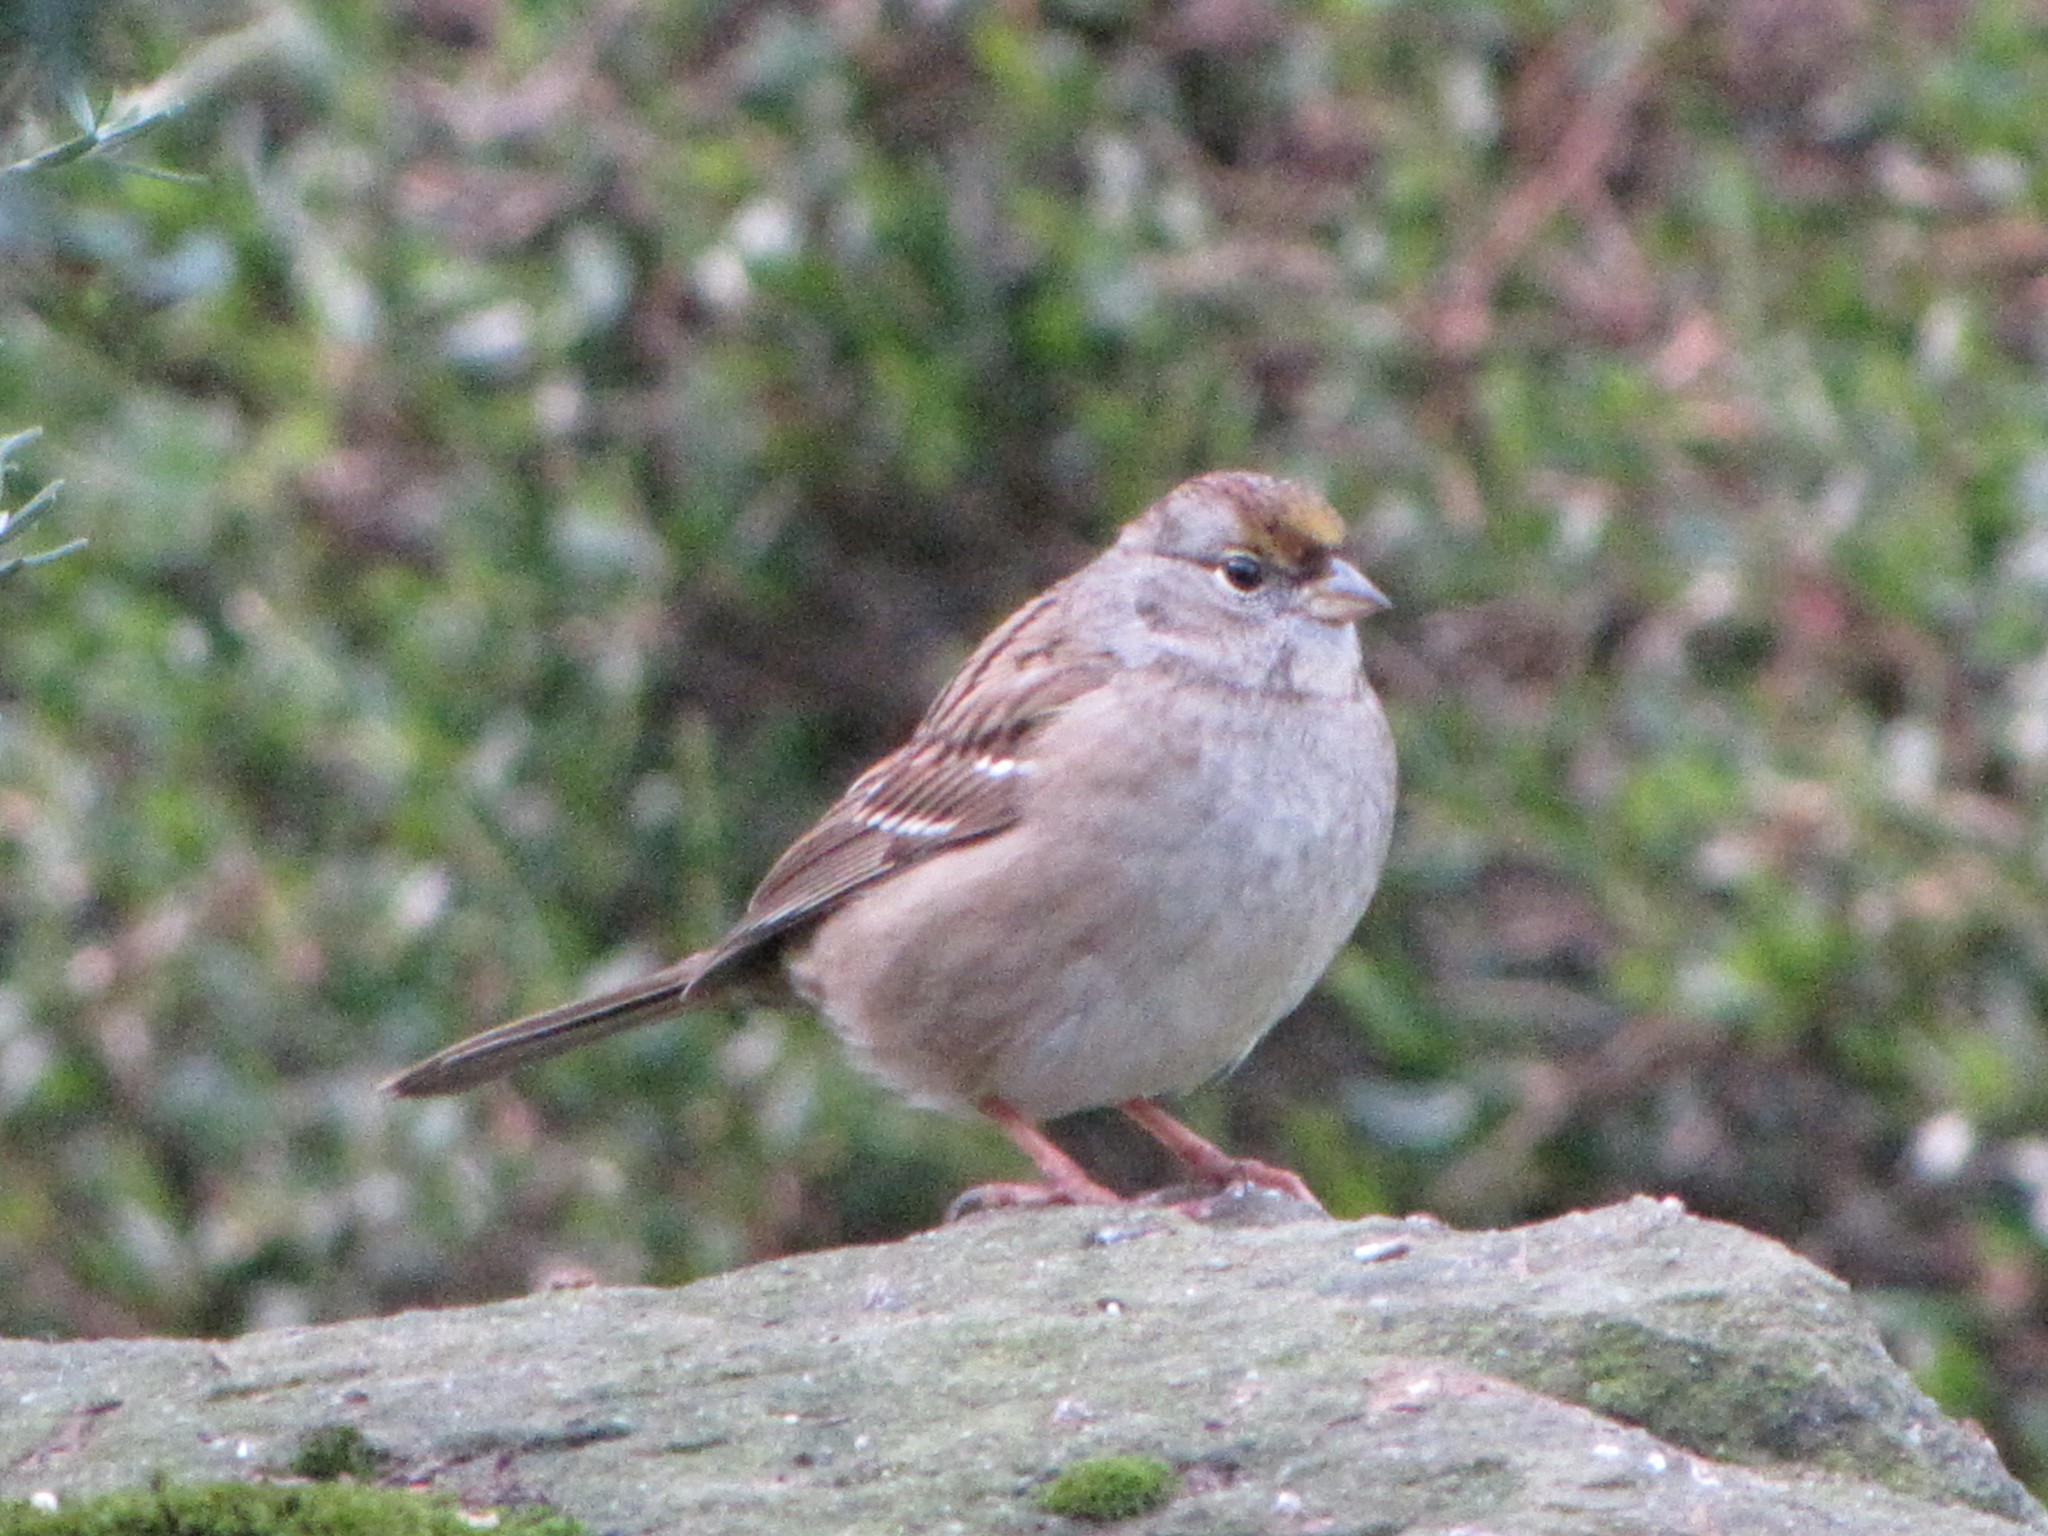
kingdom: Animalia
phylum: Chordata
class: Aves
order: Passeriformes
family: Passerellidae
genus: Zonotrichia
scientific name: Zonotrichia atricapilla
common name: Golden-crowned sparrow
